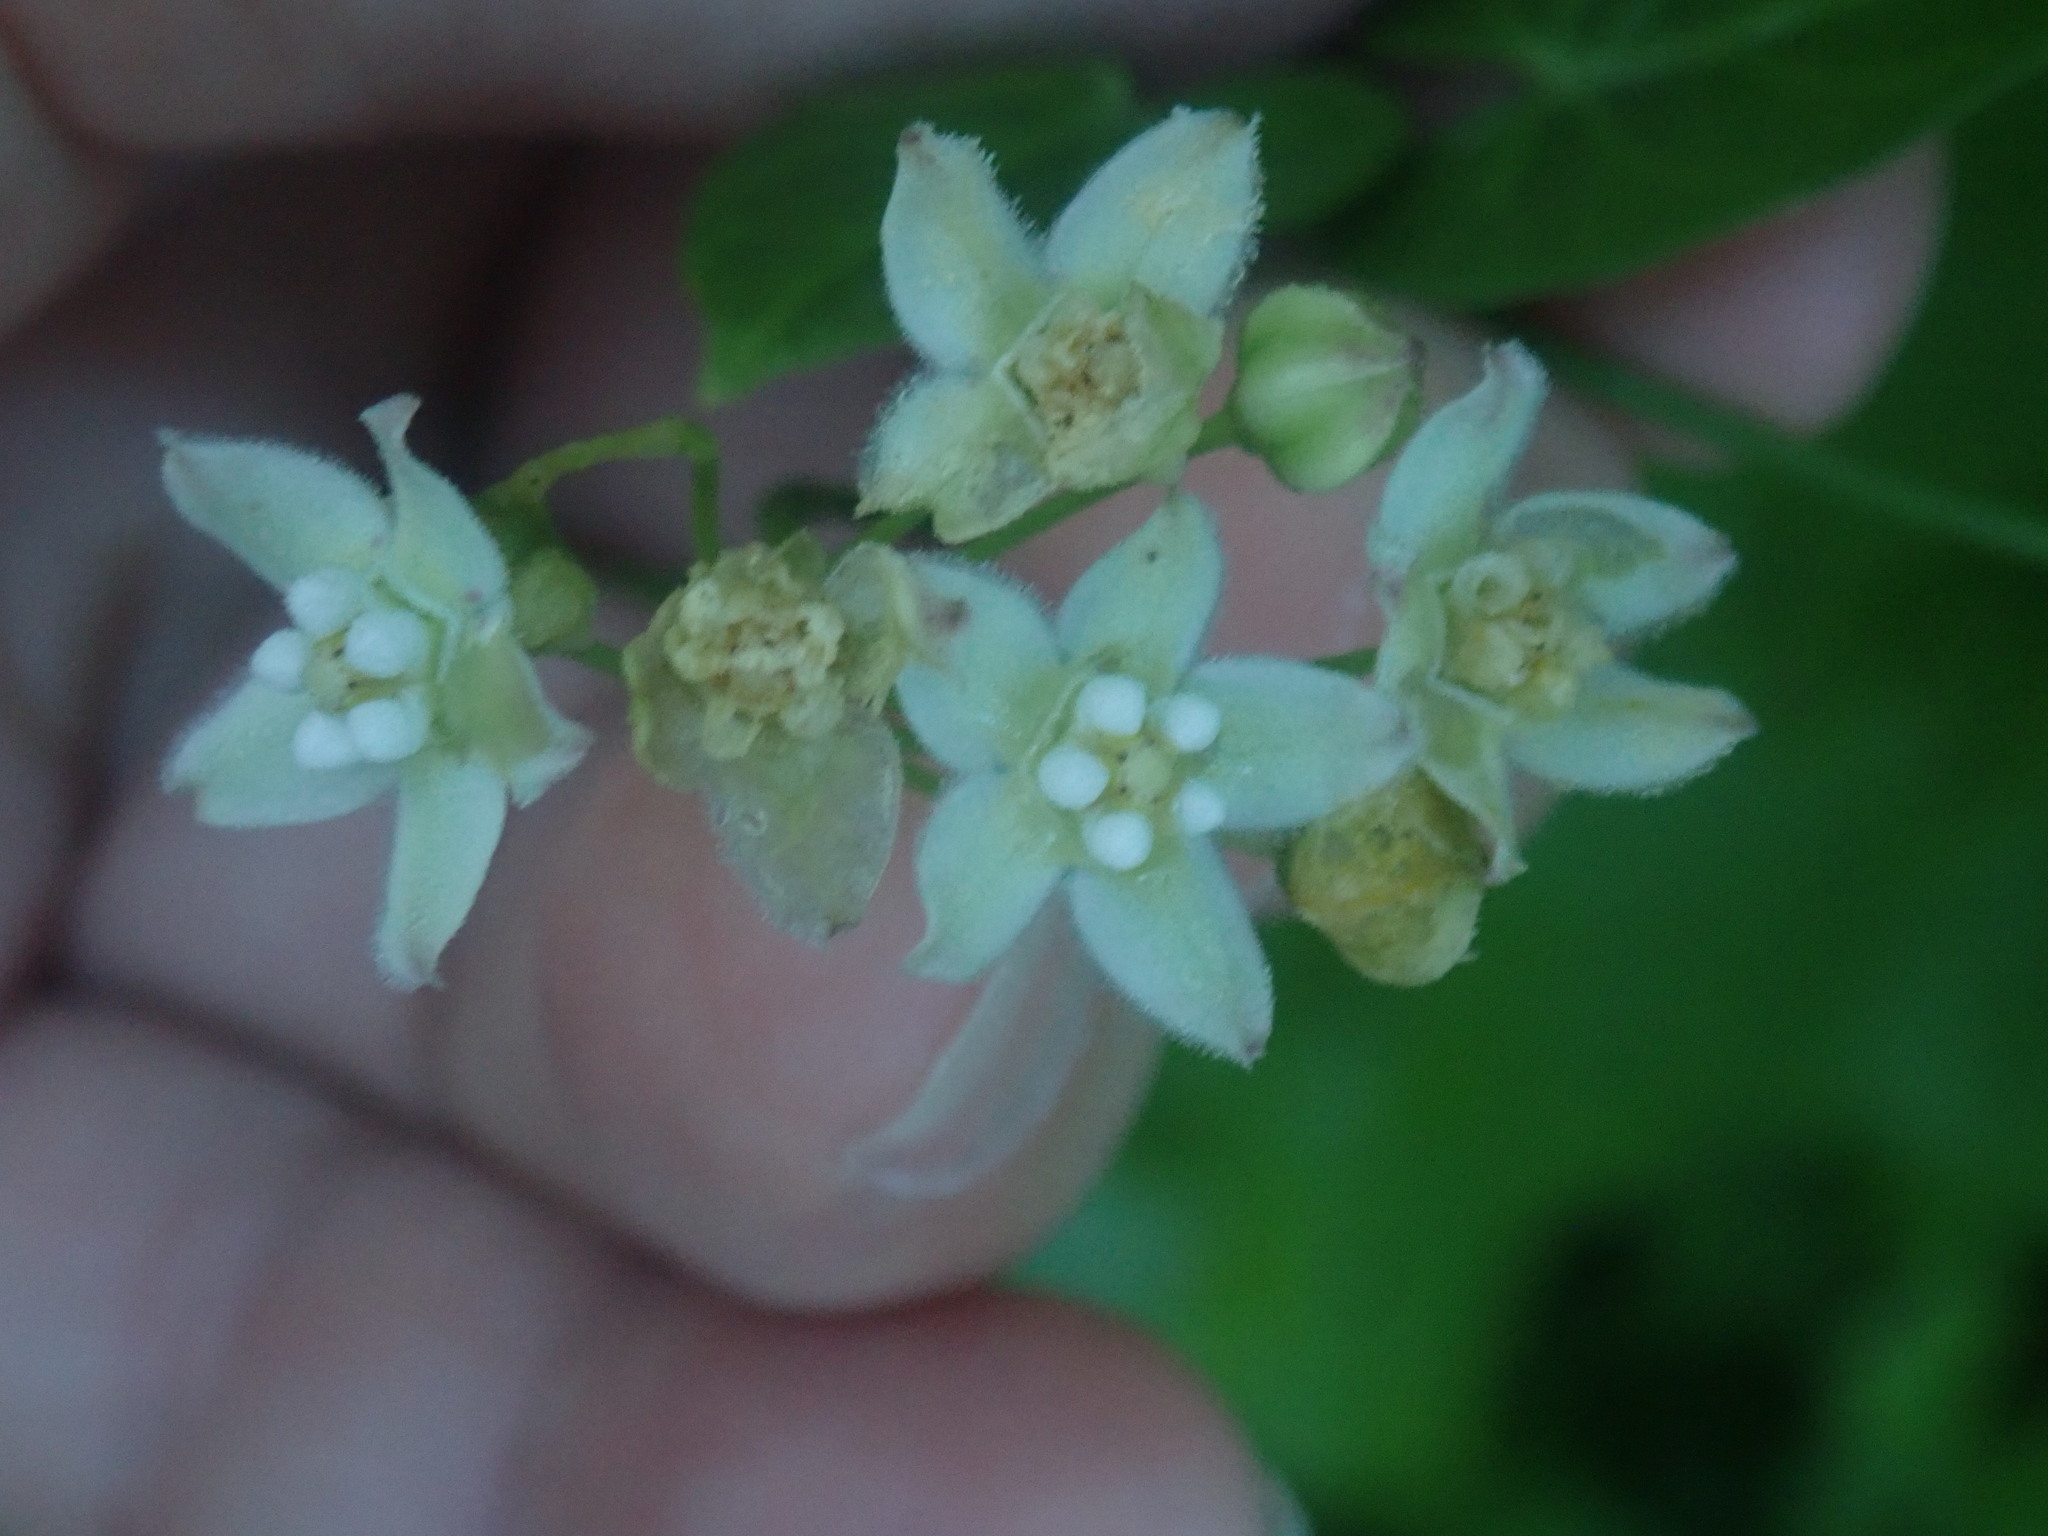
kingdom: Plantae
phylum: Tracheophyta
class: Magnoliopsida
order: Gentianales
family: Apocynaceae
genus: Funastrum
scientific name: Funastrum cynanchoides
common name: Climbing-milkweed
